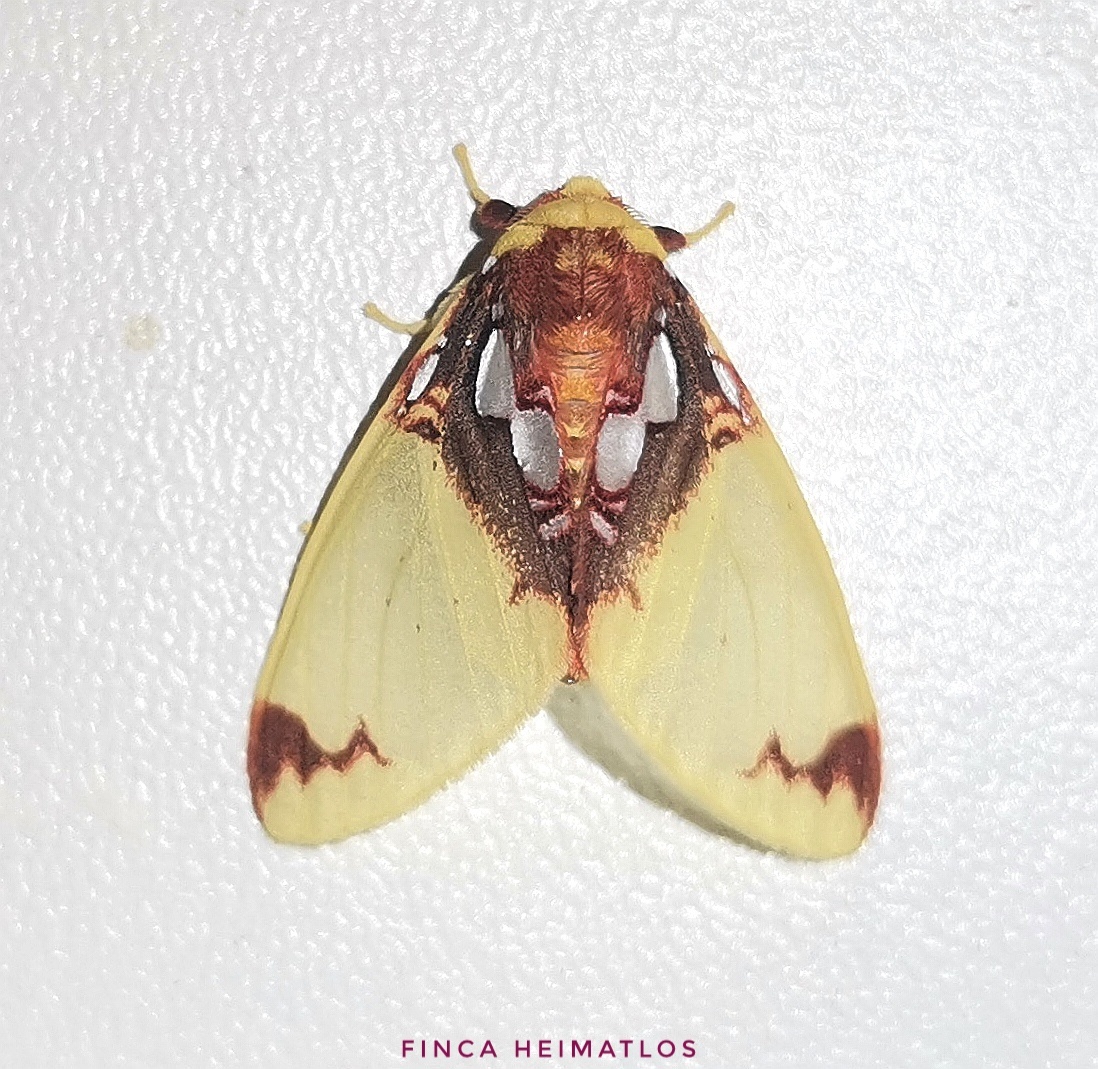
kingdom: Animalia
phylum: Arthropoda
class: Insecta
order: Lepidoptera
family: Erebidae
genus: Amaxia
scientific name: Amaxia chaon
